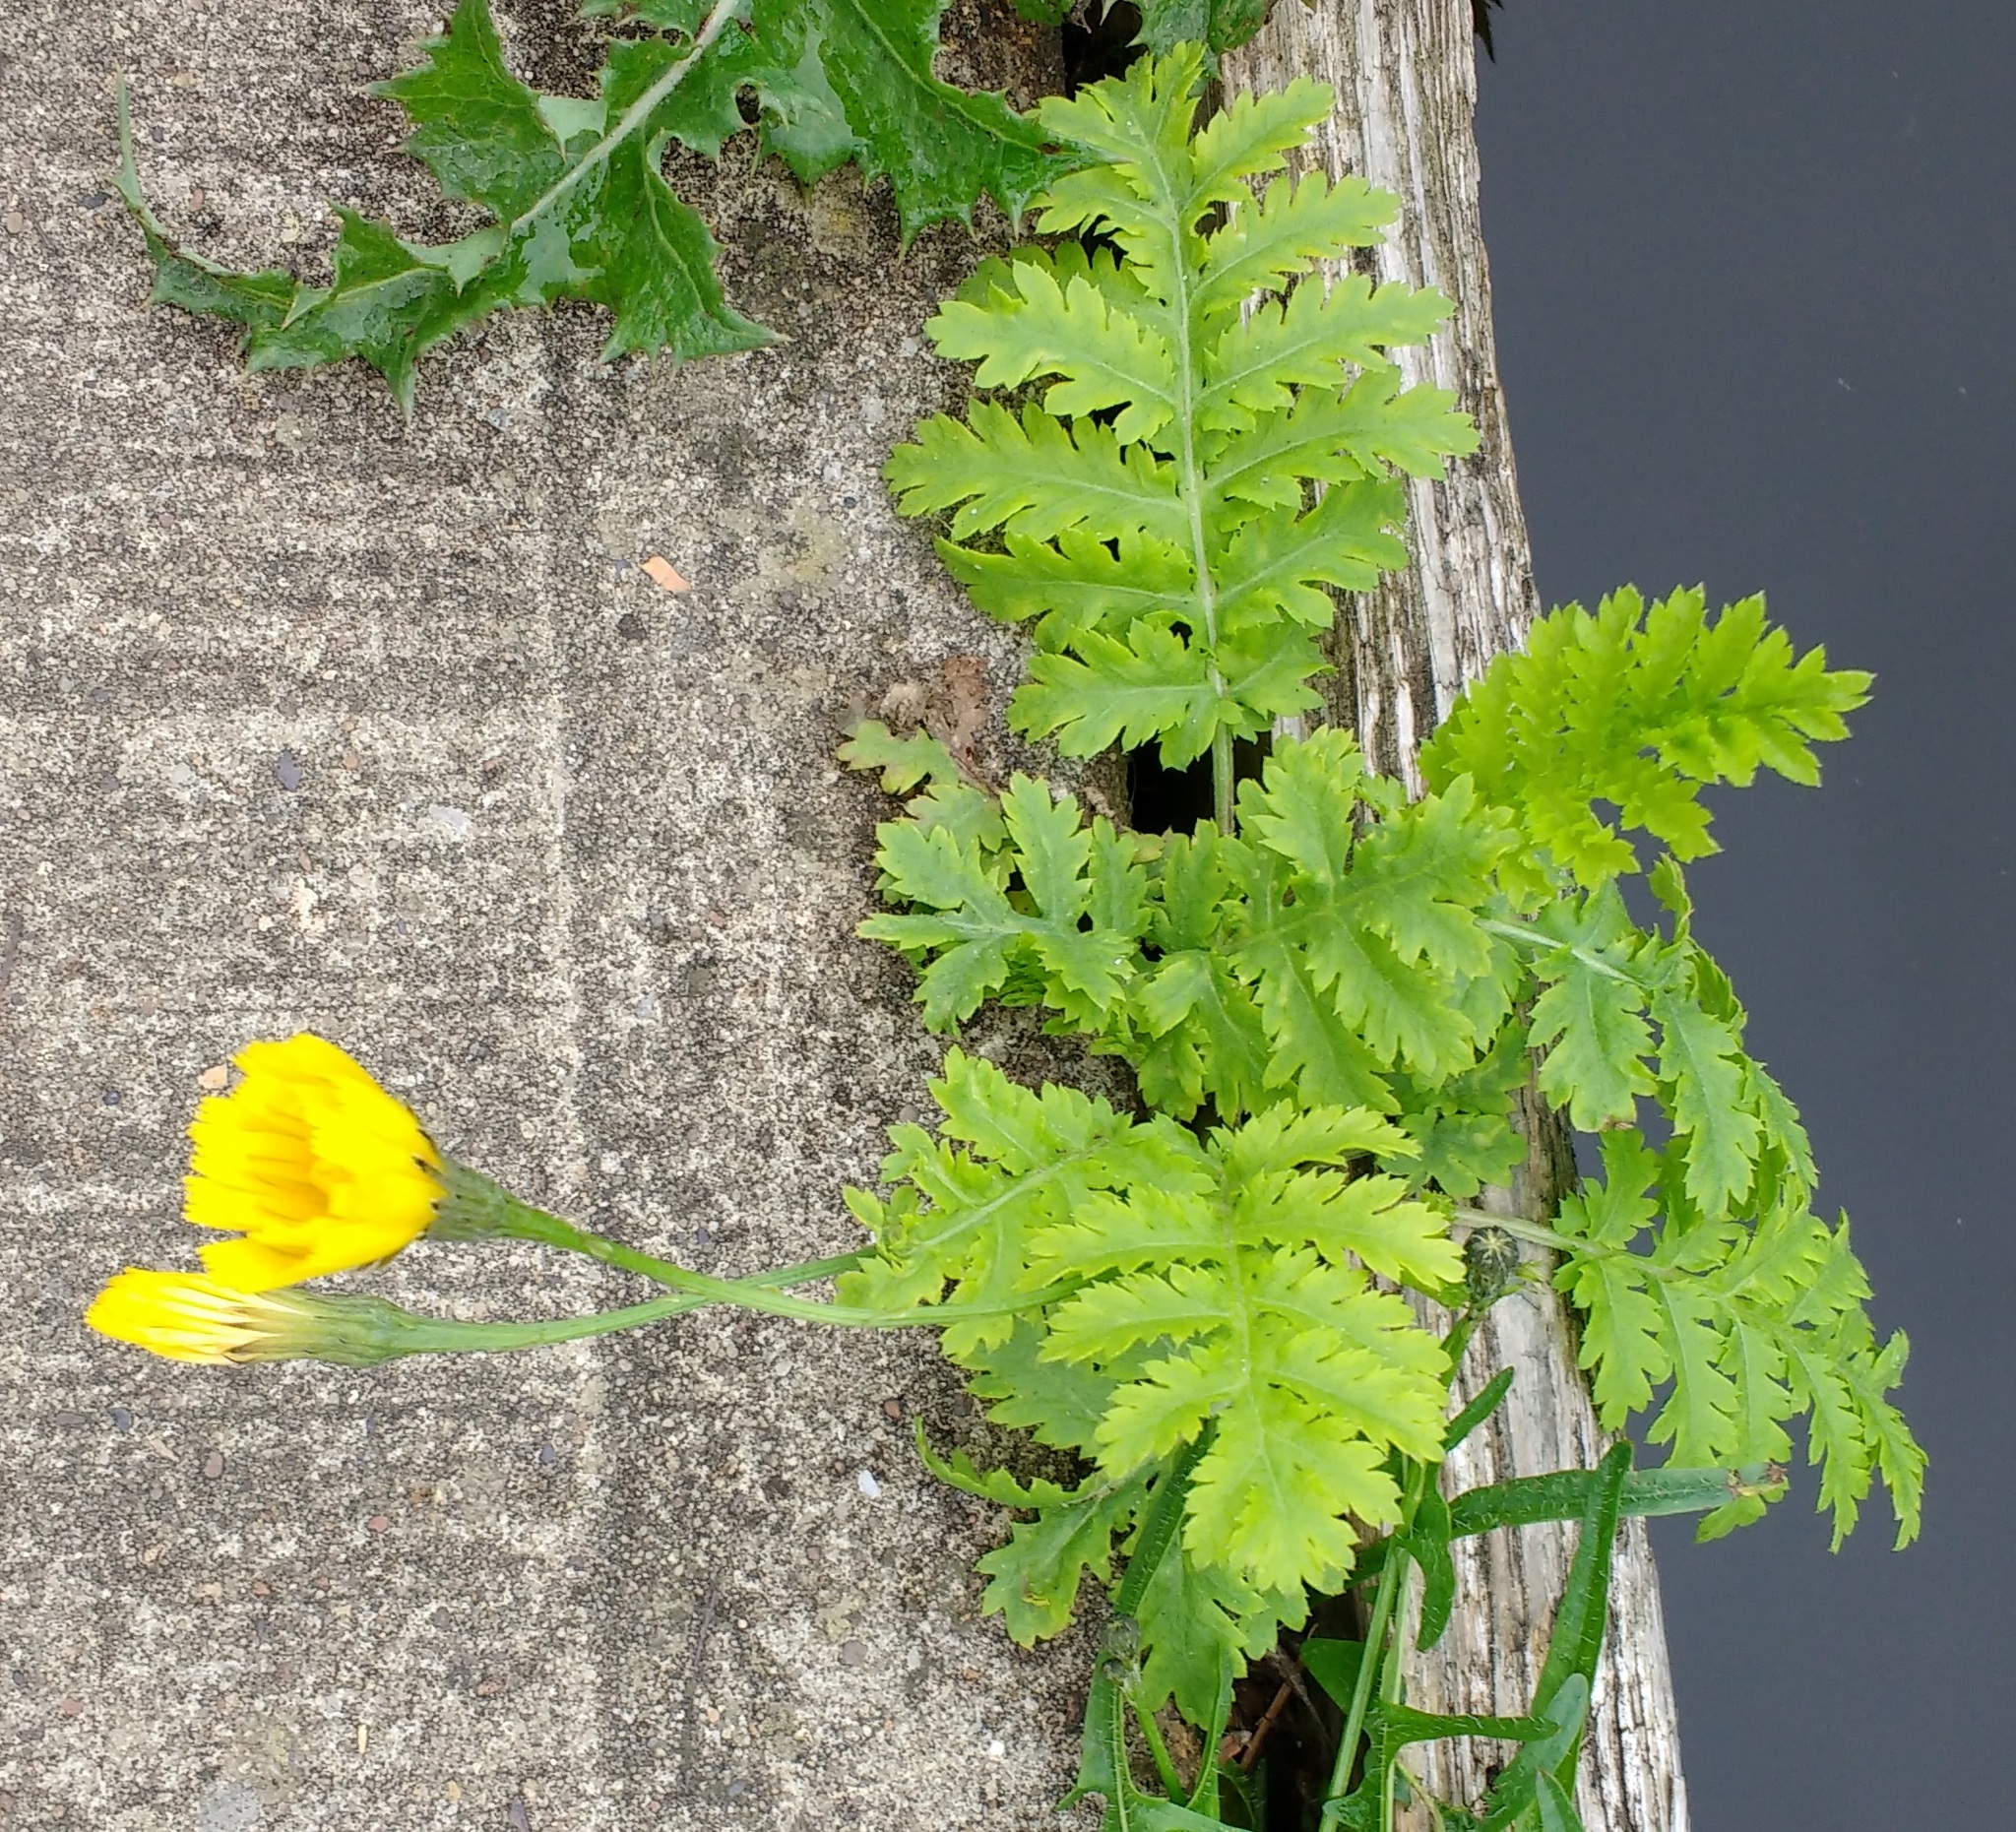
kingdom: Plantae
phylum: Tracheophyta
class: Magnoliopsida
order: Asterales
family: Asteraceae
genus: Scorzoneroides
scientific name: Scorzoneroides autumnalis
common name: Autumn hawkbit
